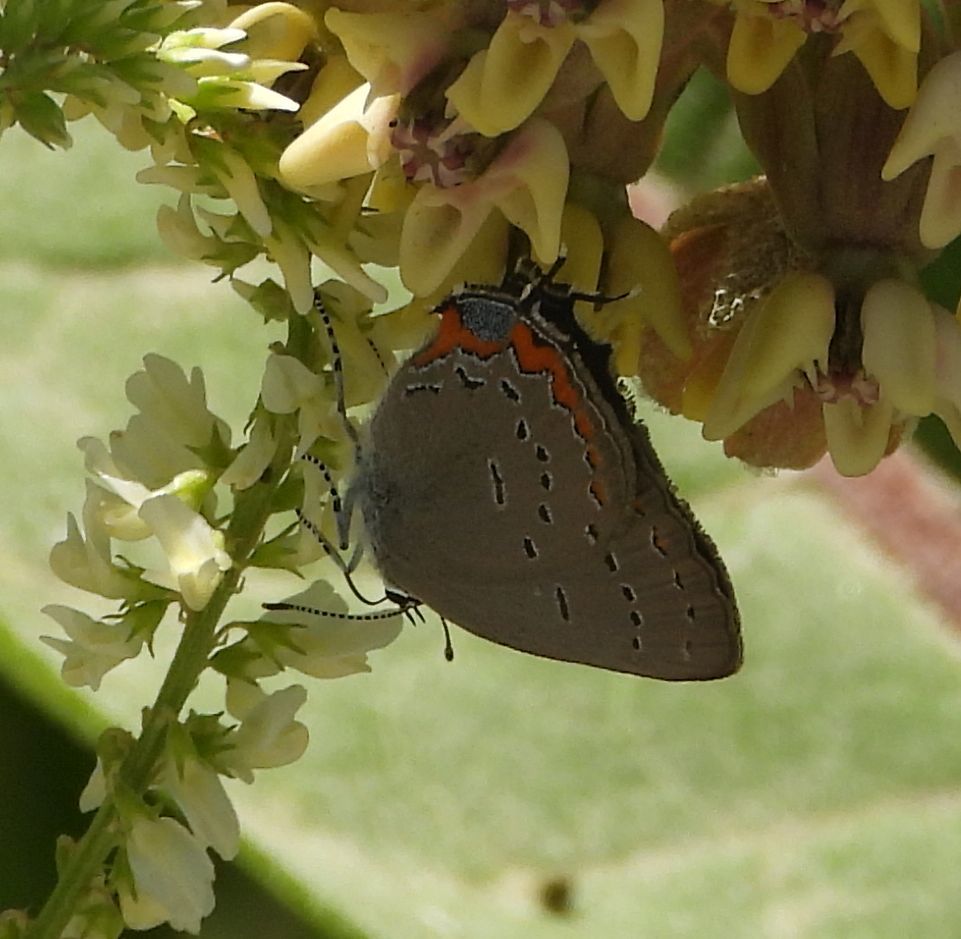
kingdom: Animalia
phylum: Arthropoda
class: Insecta
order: Lepidoptera
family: Lycaenidae
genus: Strymon
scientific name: Strymon acadica
